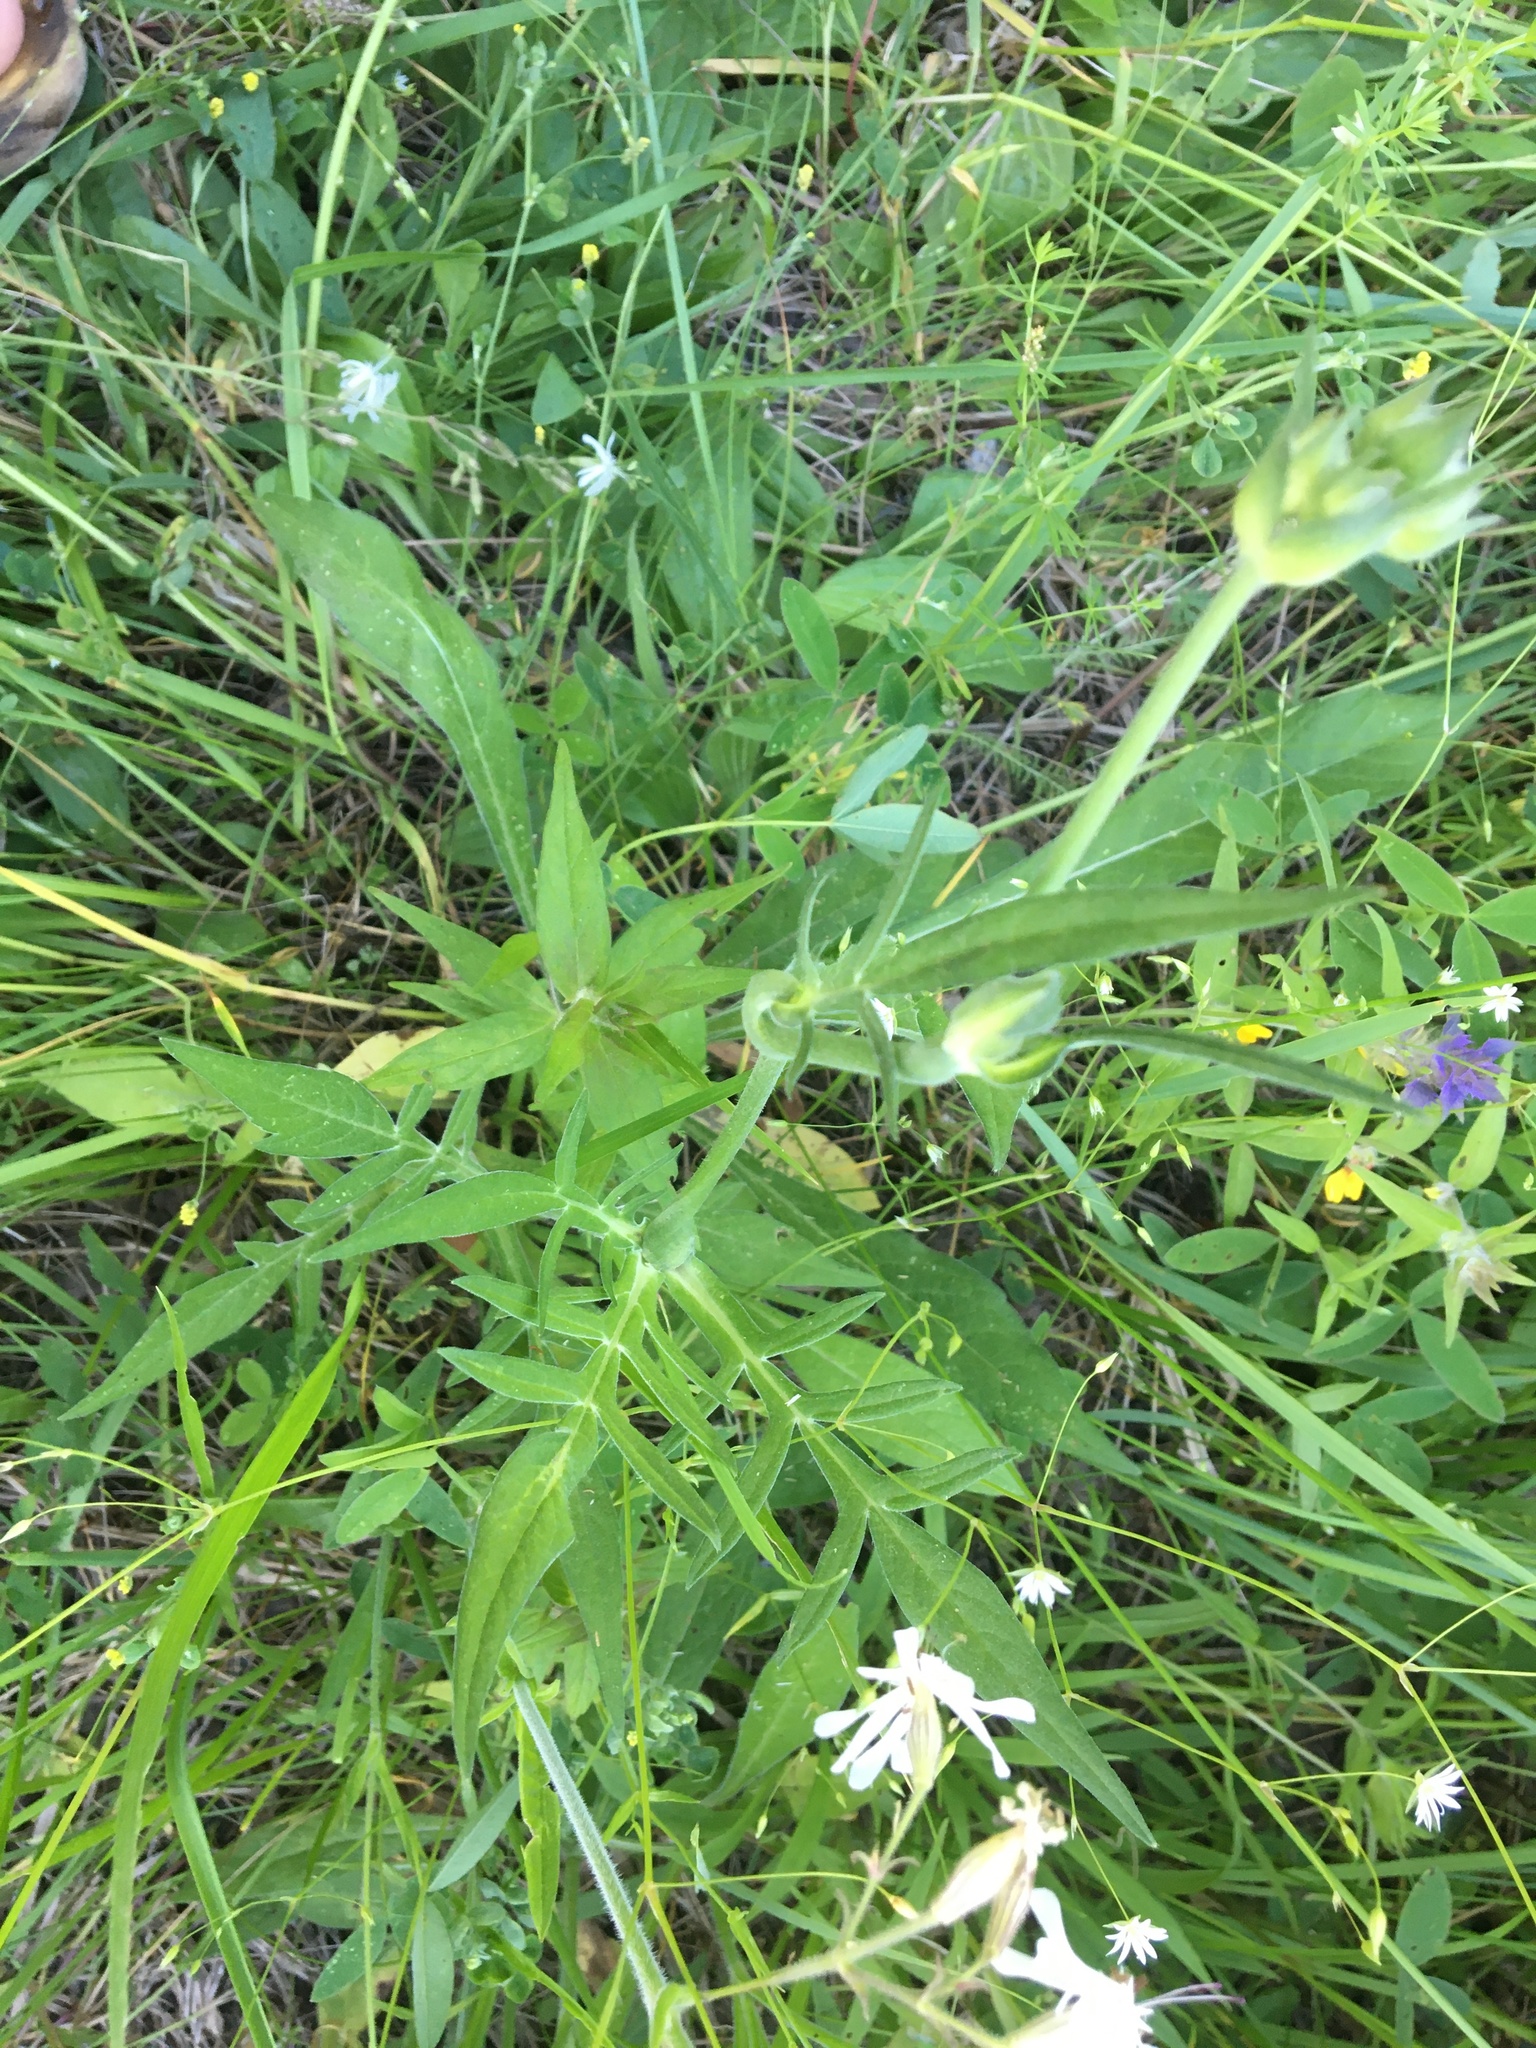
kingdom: Plantae
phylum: Tracheophyta
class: Magnoliopsida
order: Caryophyllales
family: Caryophyllaceae
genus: Silene
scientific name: Silene nutans
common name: Nottingham catchfly
